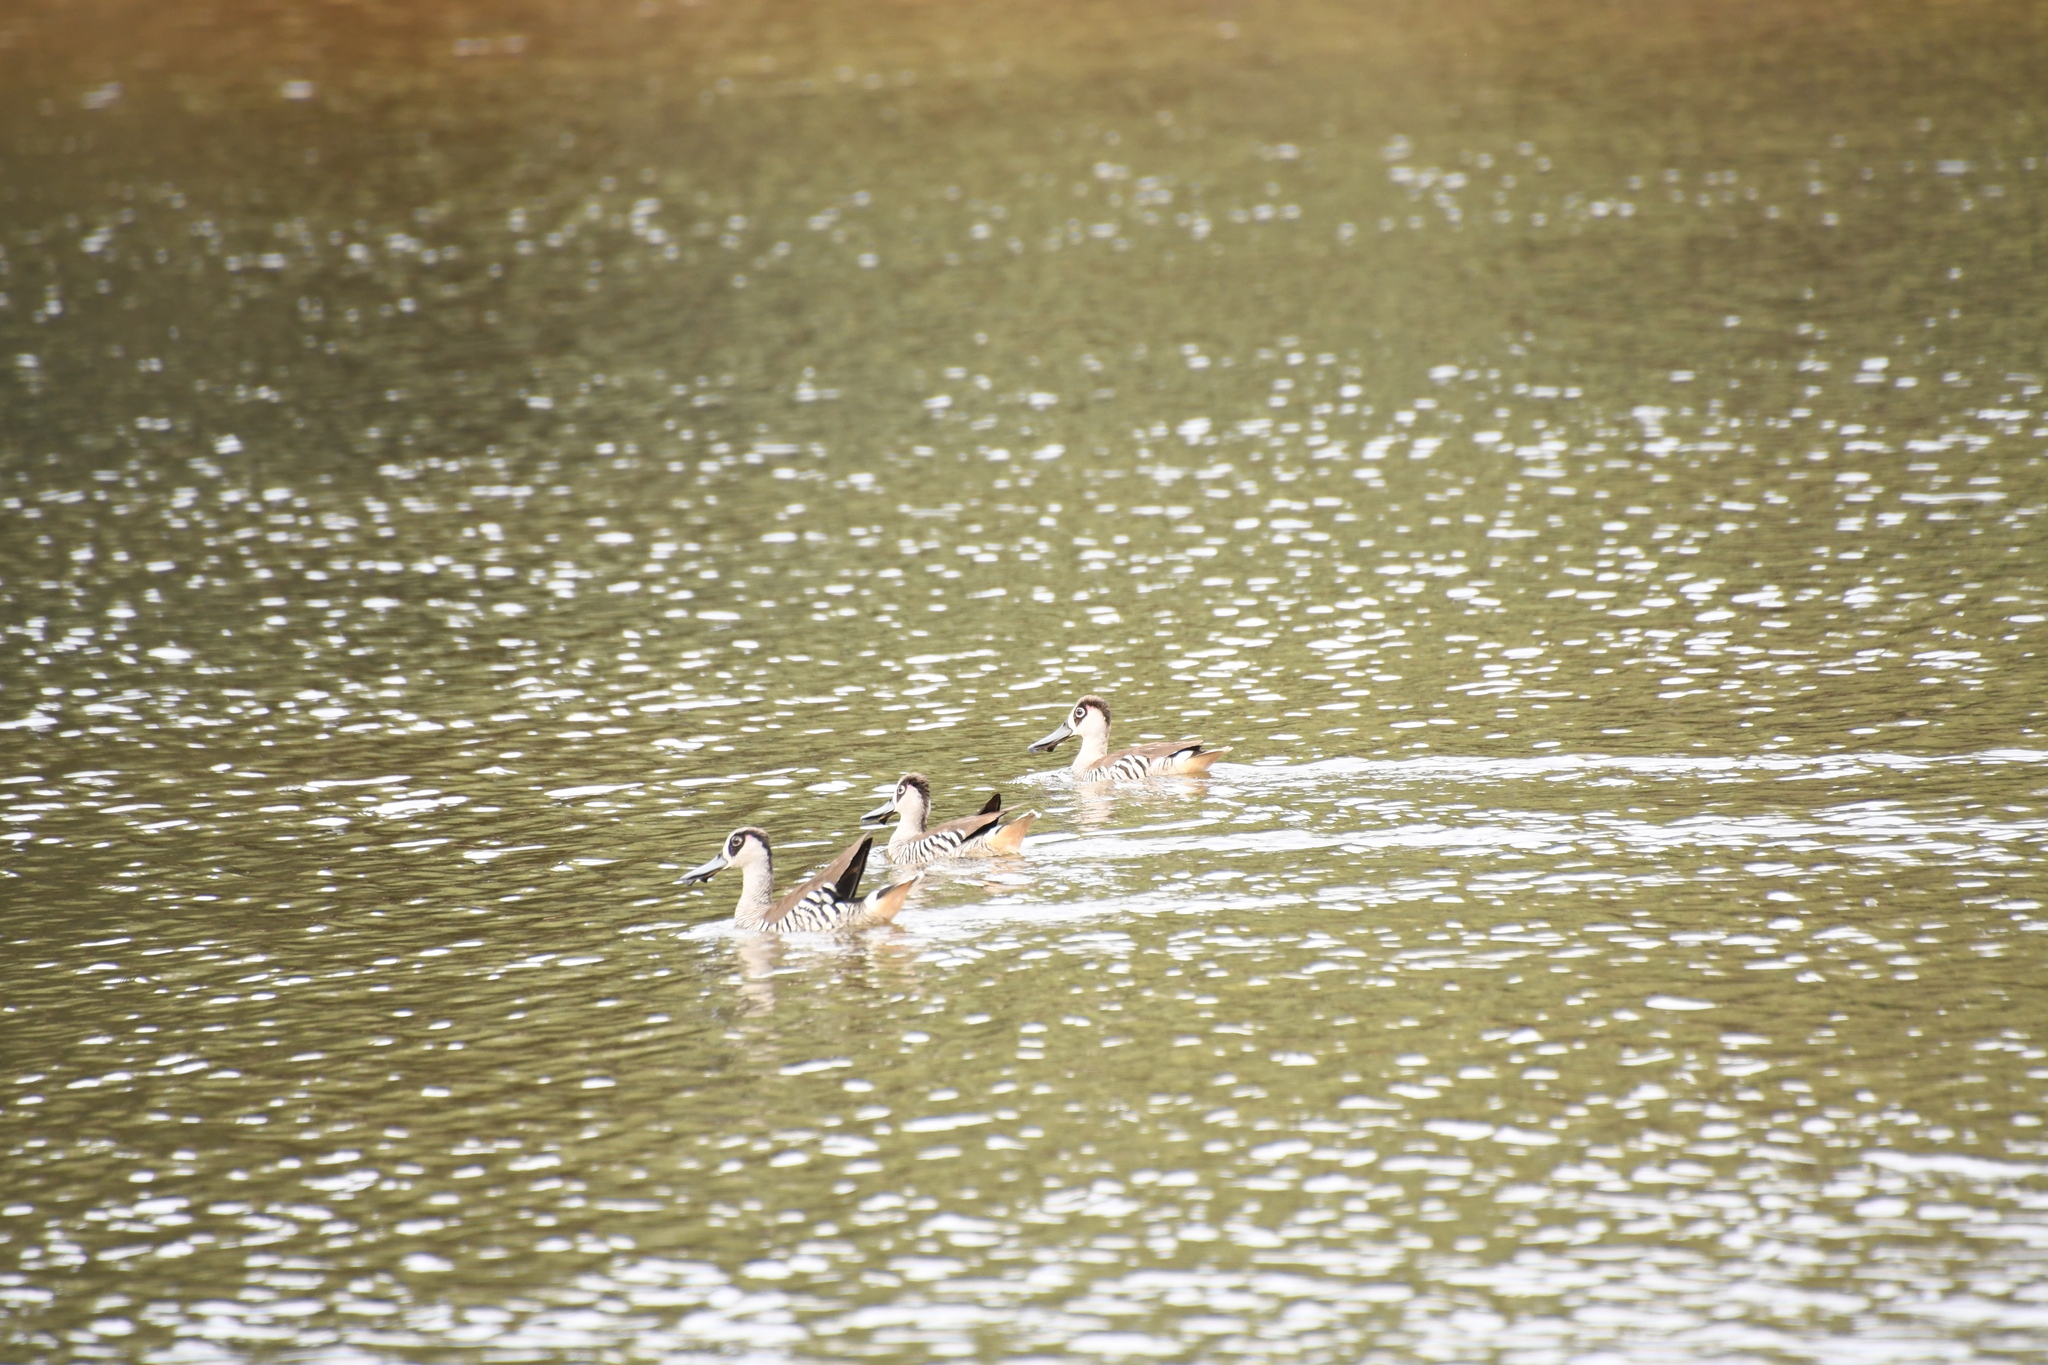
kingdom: Animalia
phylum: Chordata
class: Aves
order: Anseriformes
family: Anatidae
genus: Malacorhynchus
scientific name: Malacorhynchus membranaceus
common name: Pink-eared duck
